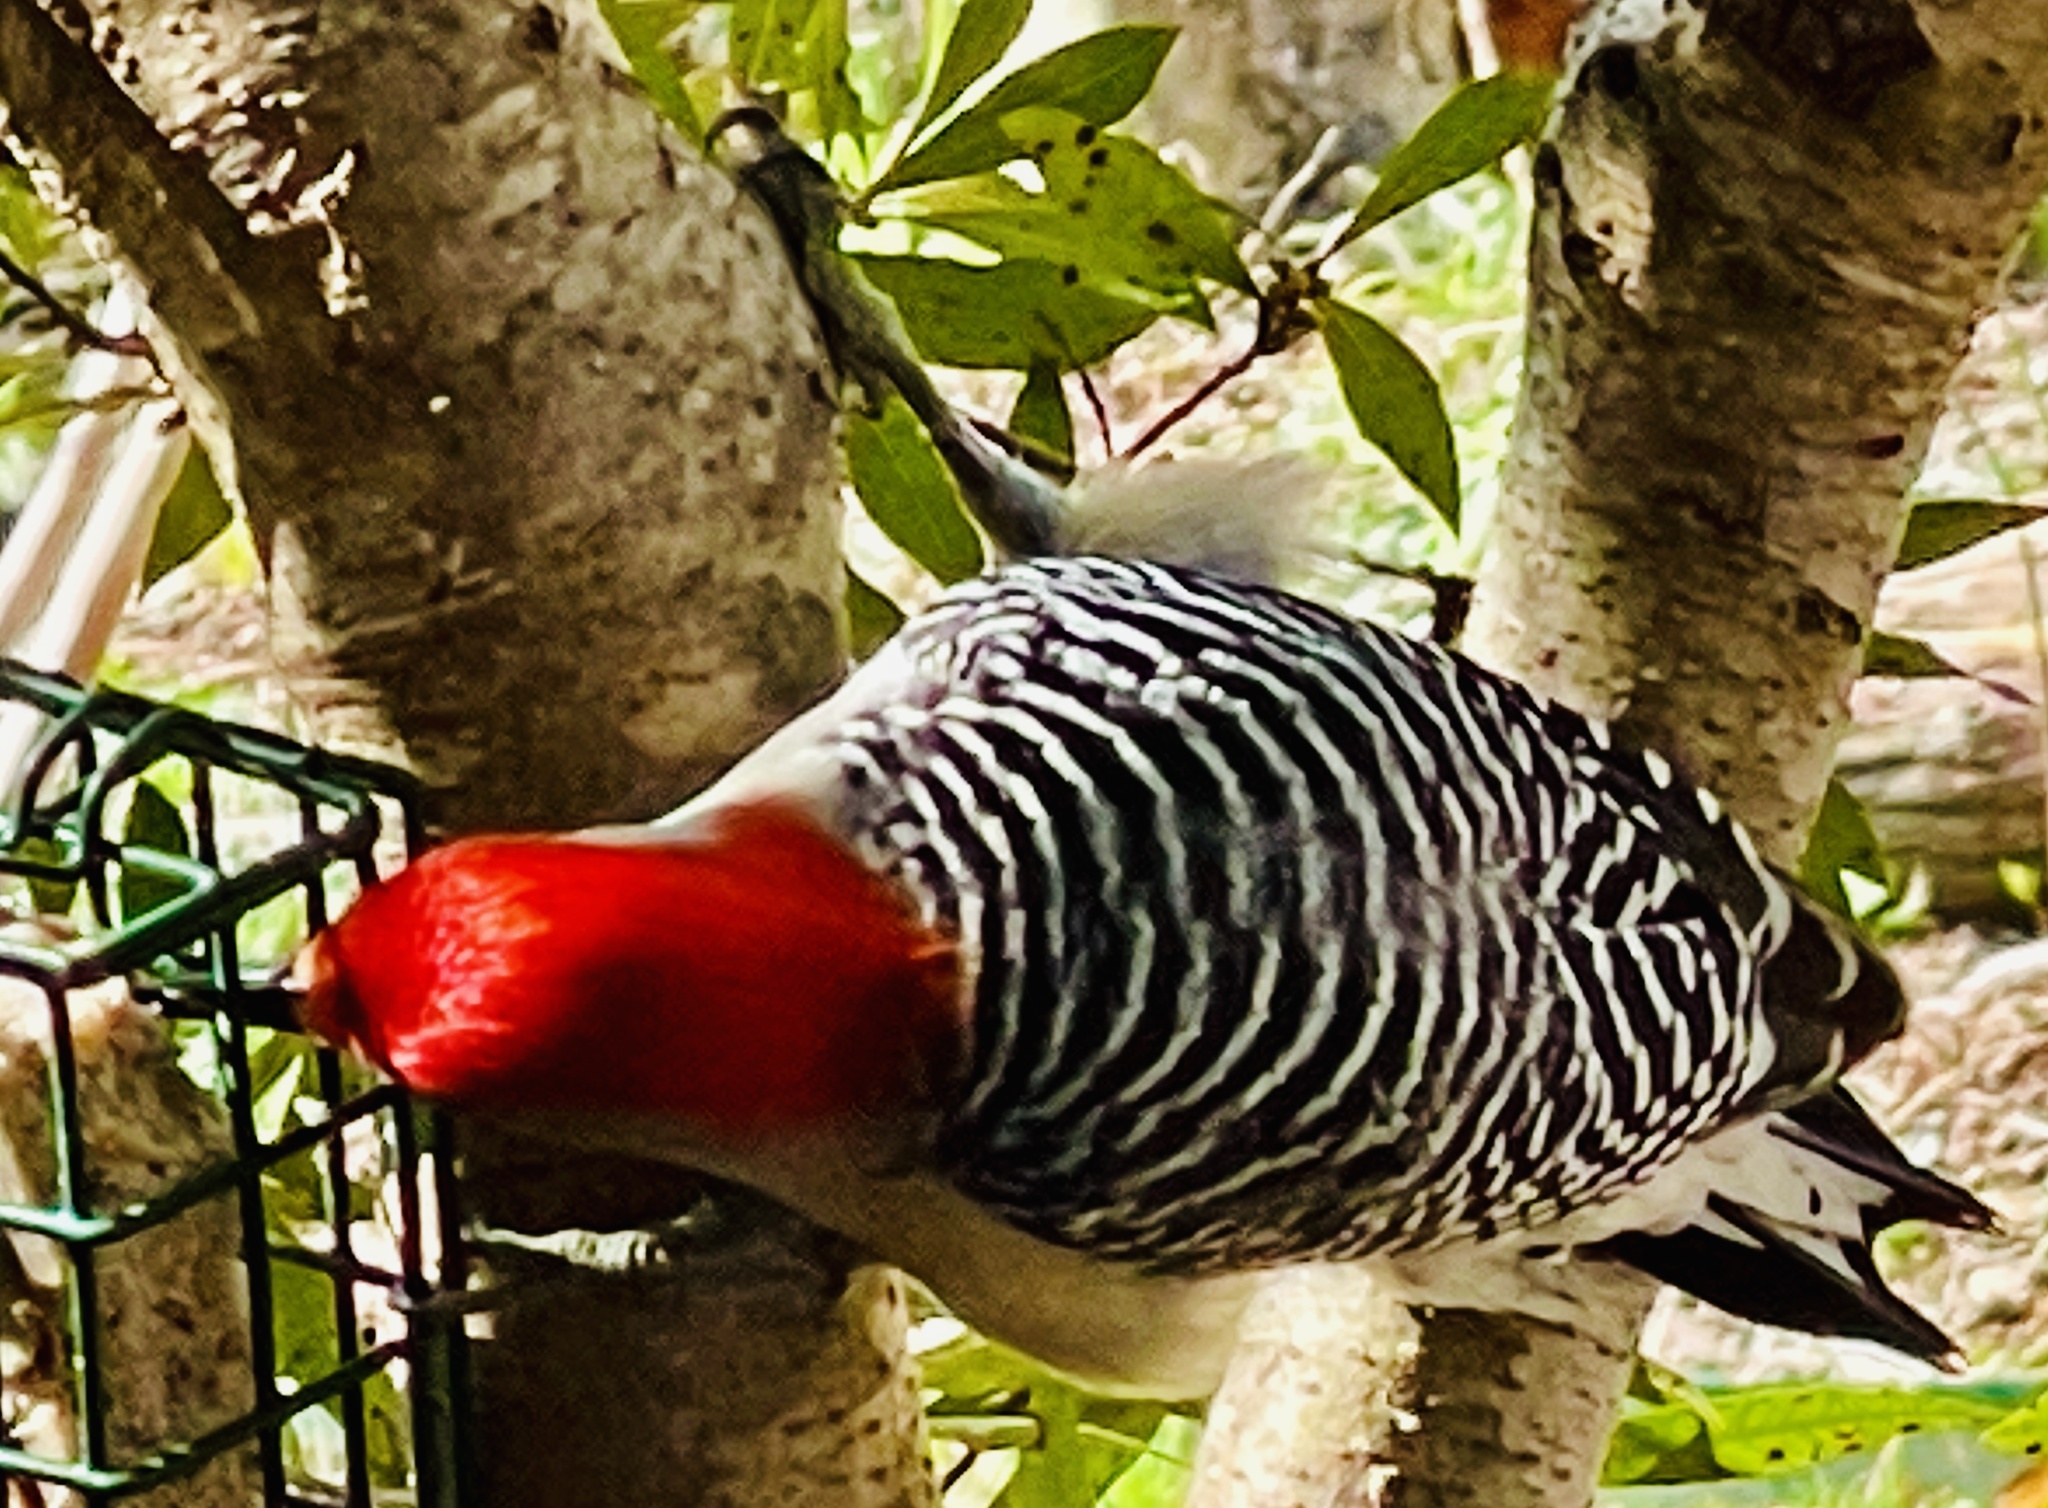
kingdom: Animalia
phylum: Chordata
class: Aves
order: Piciformes
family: Picidae
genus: Melanerpes
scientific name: Melanerpes carolinus
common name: Red-bellied woodpecker
